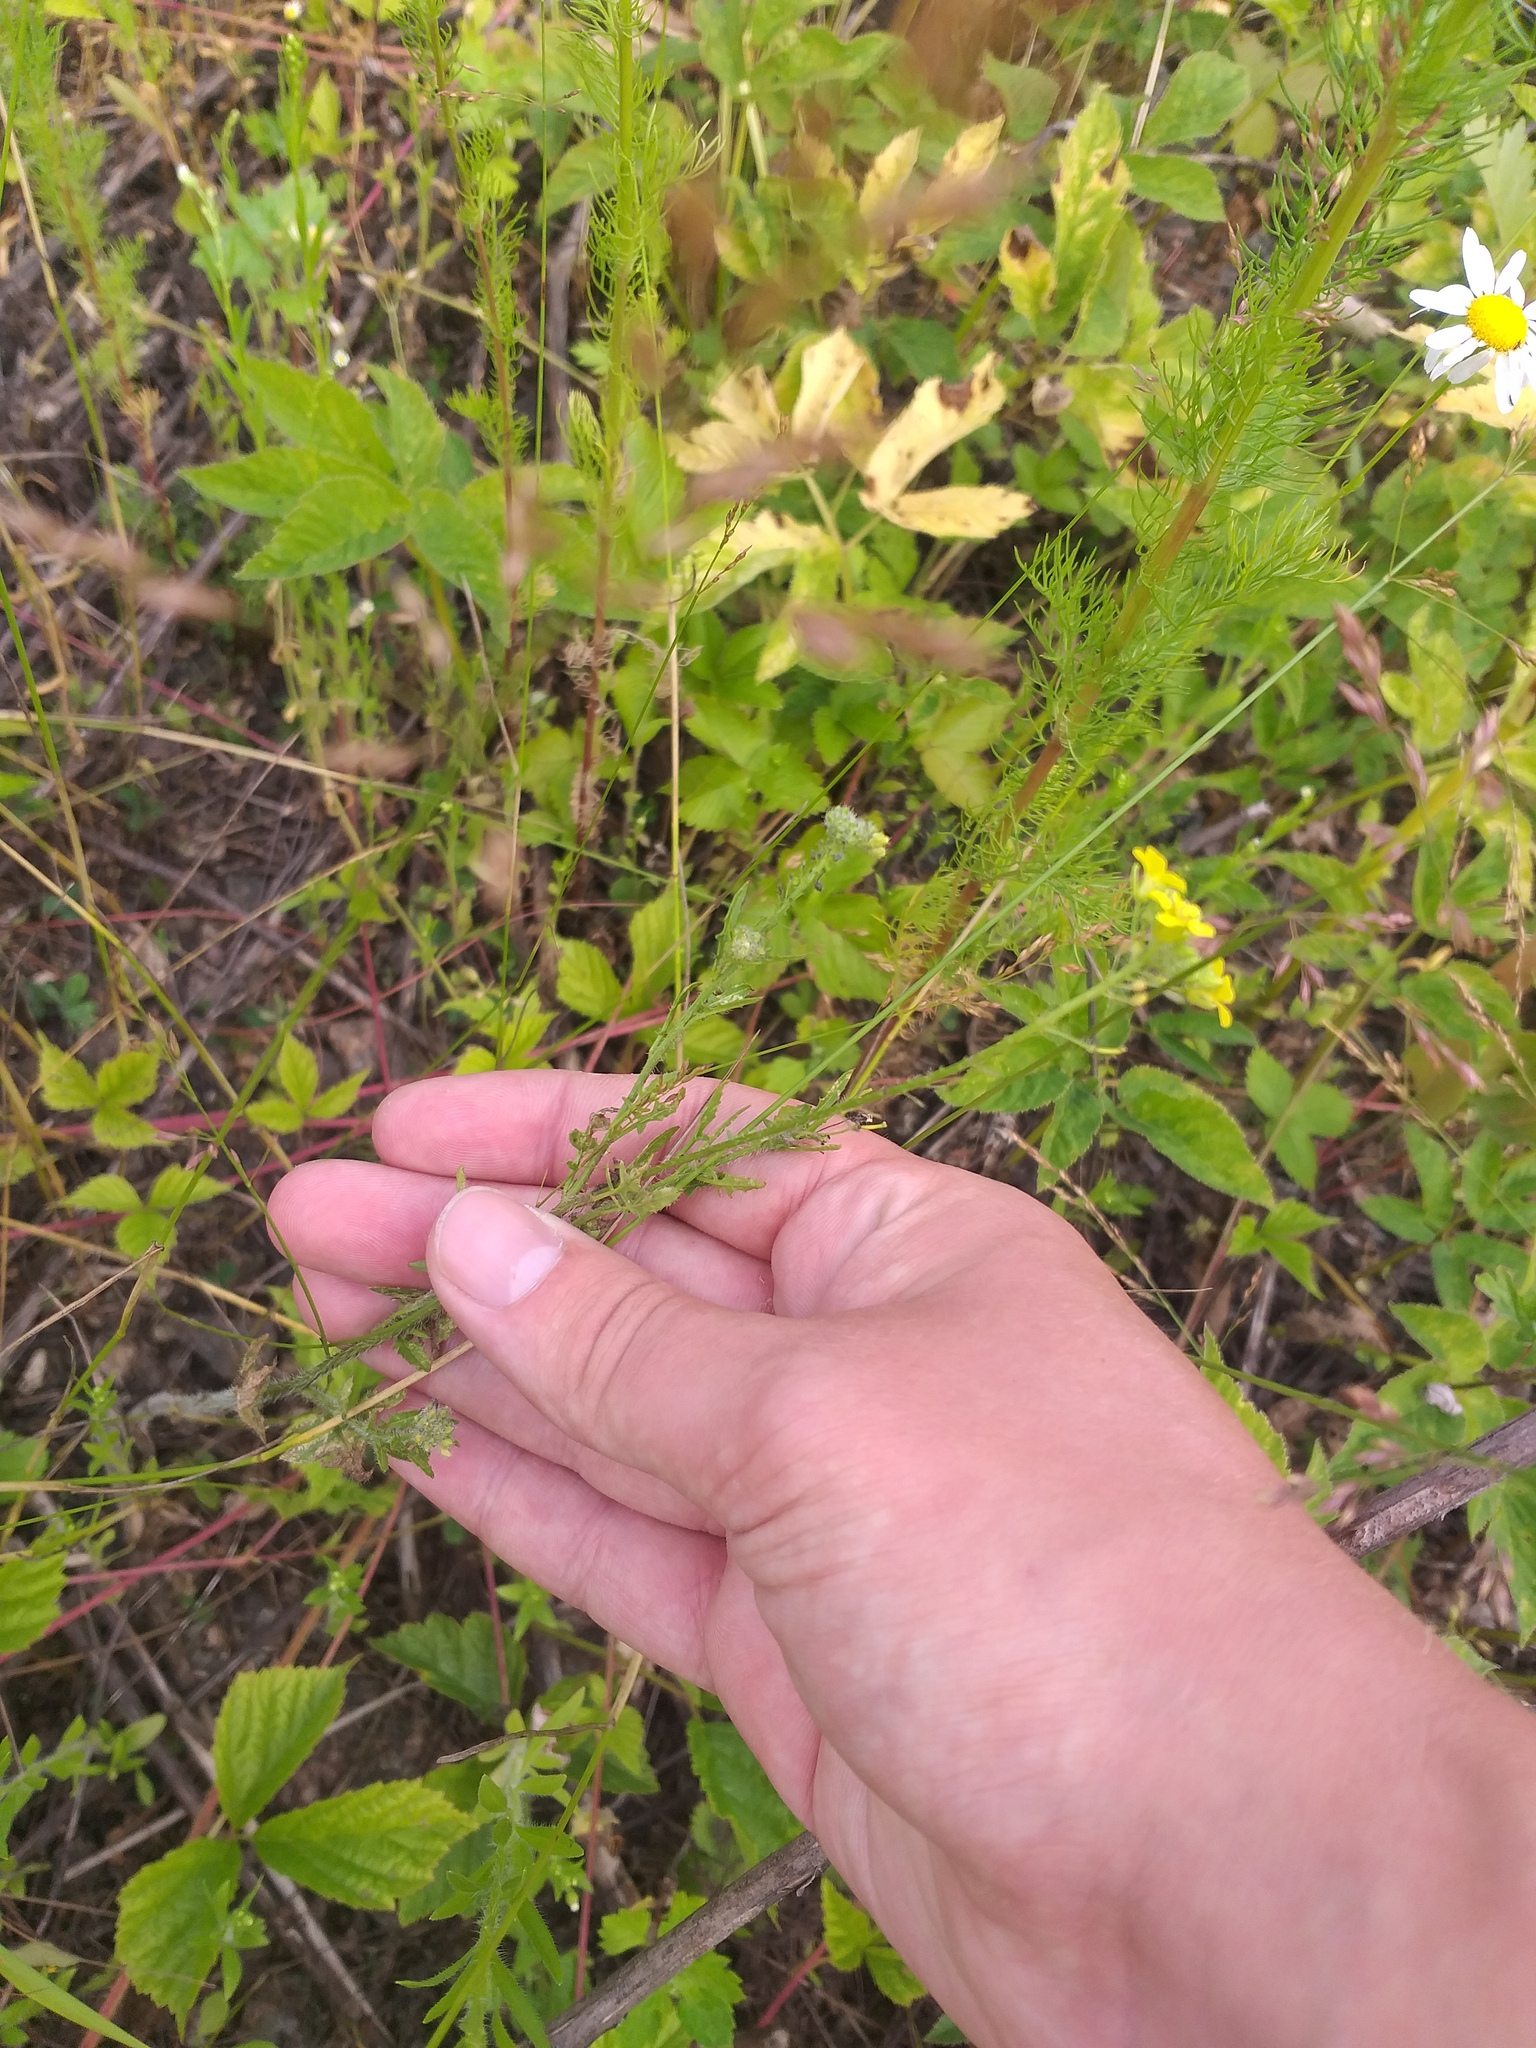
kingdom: Plantae
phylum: Tracheophyta
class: Magnoliopsida
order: Brassicales
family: Brassicaceae
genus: Sisymbrium
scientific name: Sisymbrium loeselii
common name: False london-rocket
